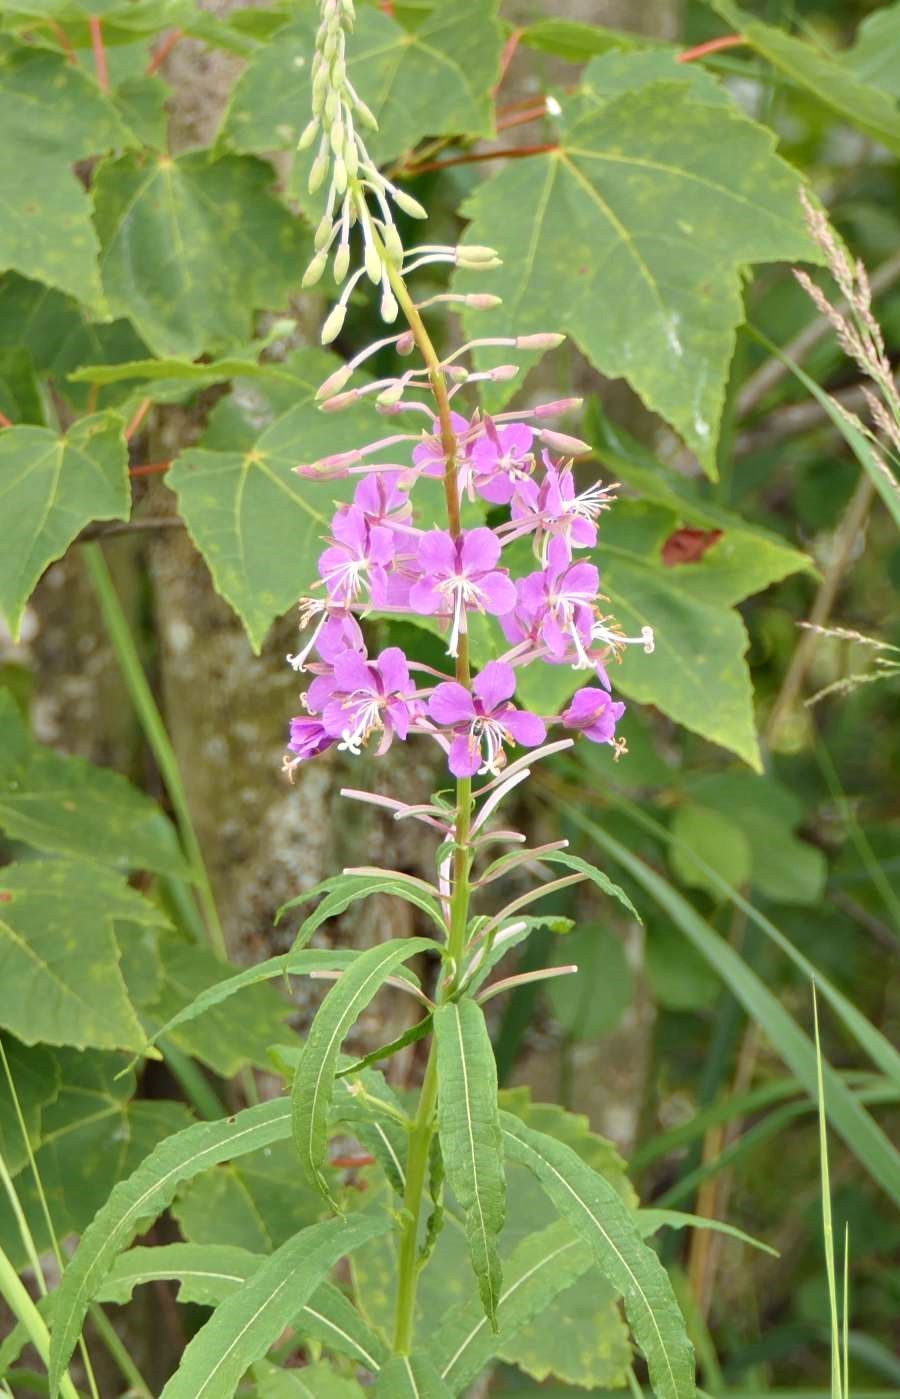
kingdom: Plantae
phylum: Tracheophyta
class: Magnoliopsida
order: Myrtales
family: Onagraceae
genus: Chamaenerion
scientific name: Chamaenerion angustifolium
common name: Fireweed
